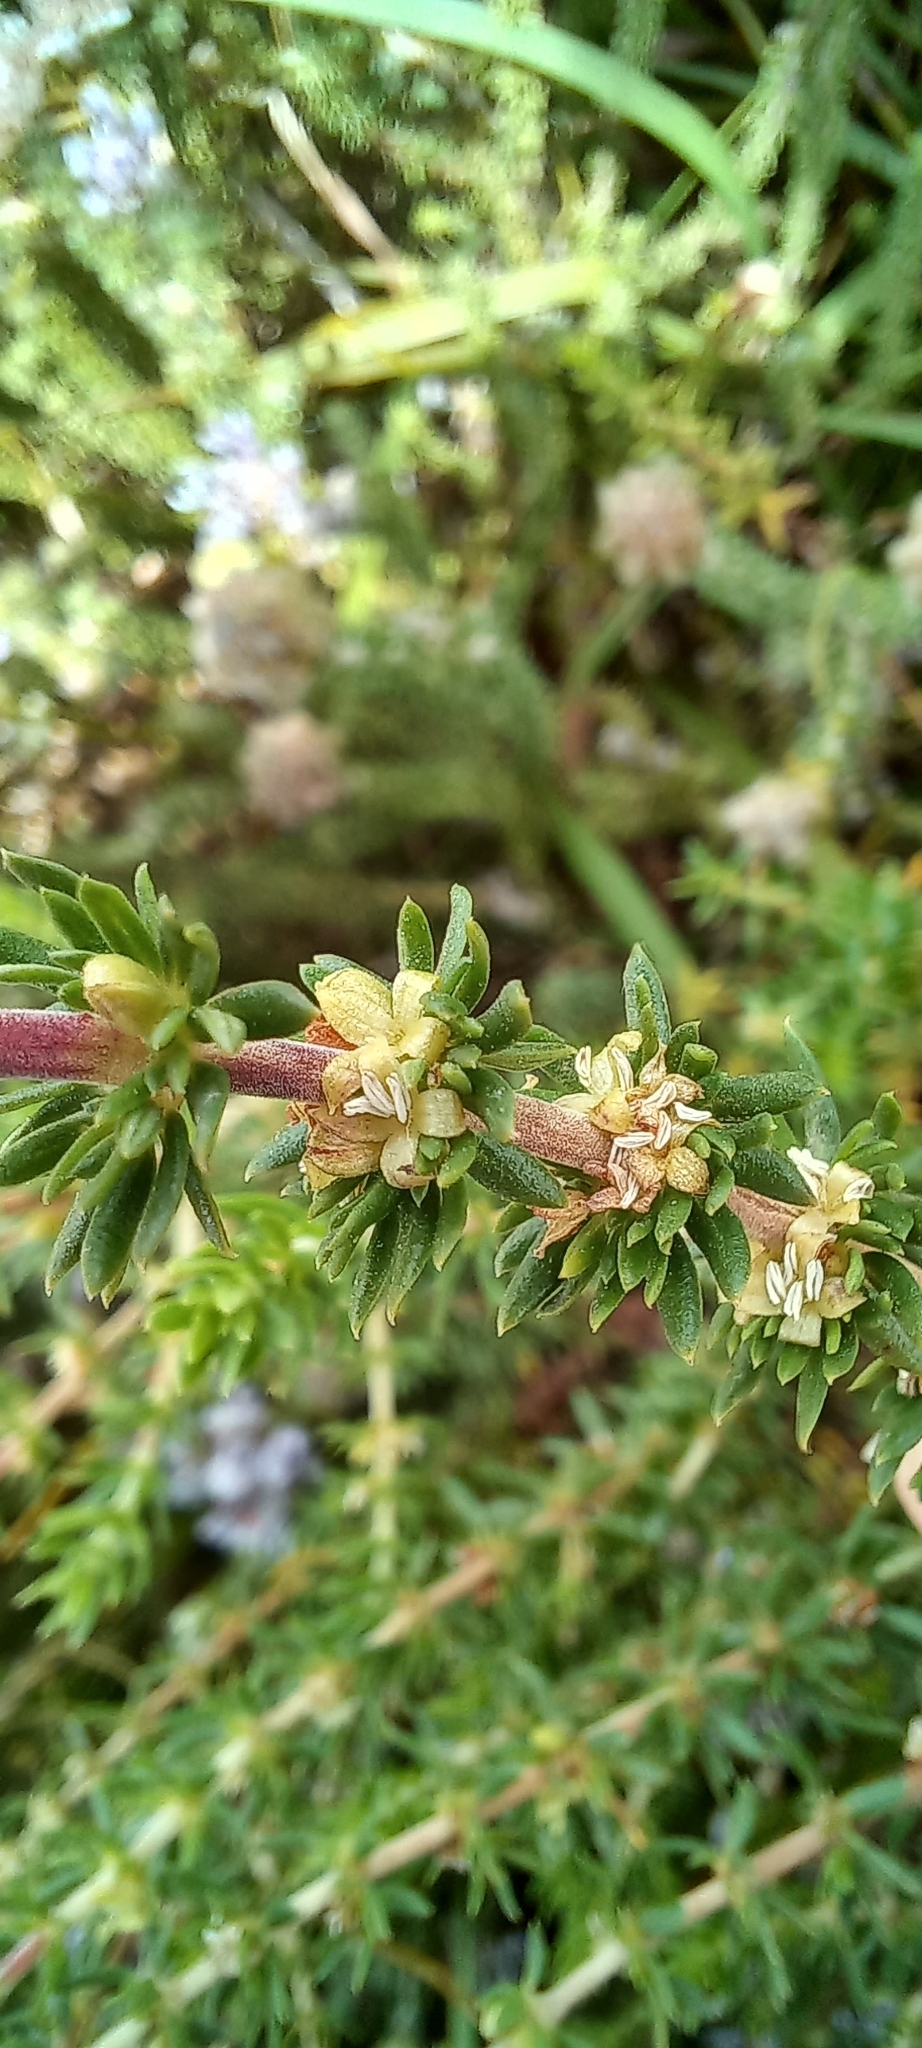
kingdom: Plantae
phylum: Tracheophyta
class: Magnoliopsida
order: Gentianales
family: Rubiaceae
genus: Anthospermum
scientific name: Anthospermum aethiopicum
